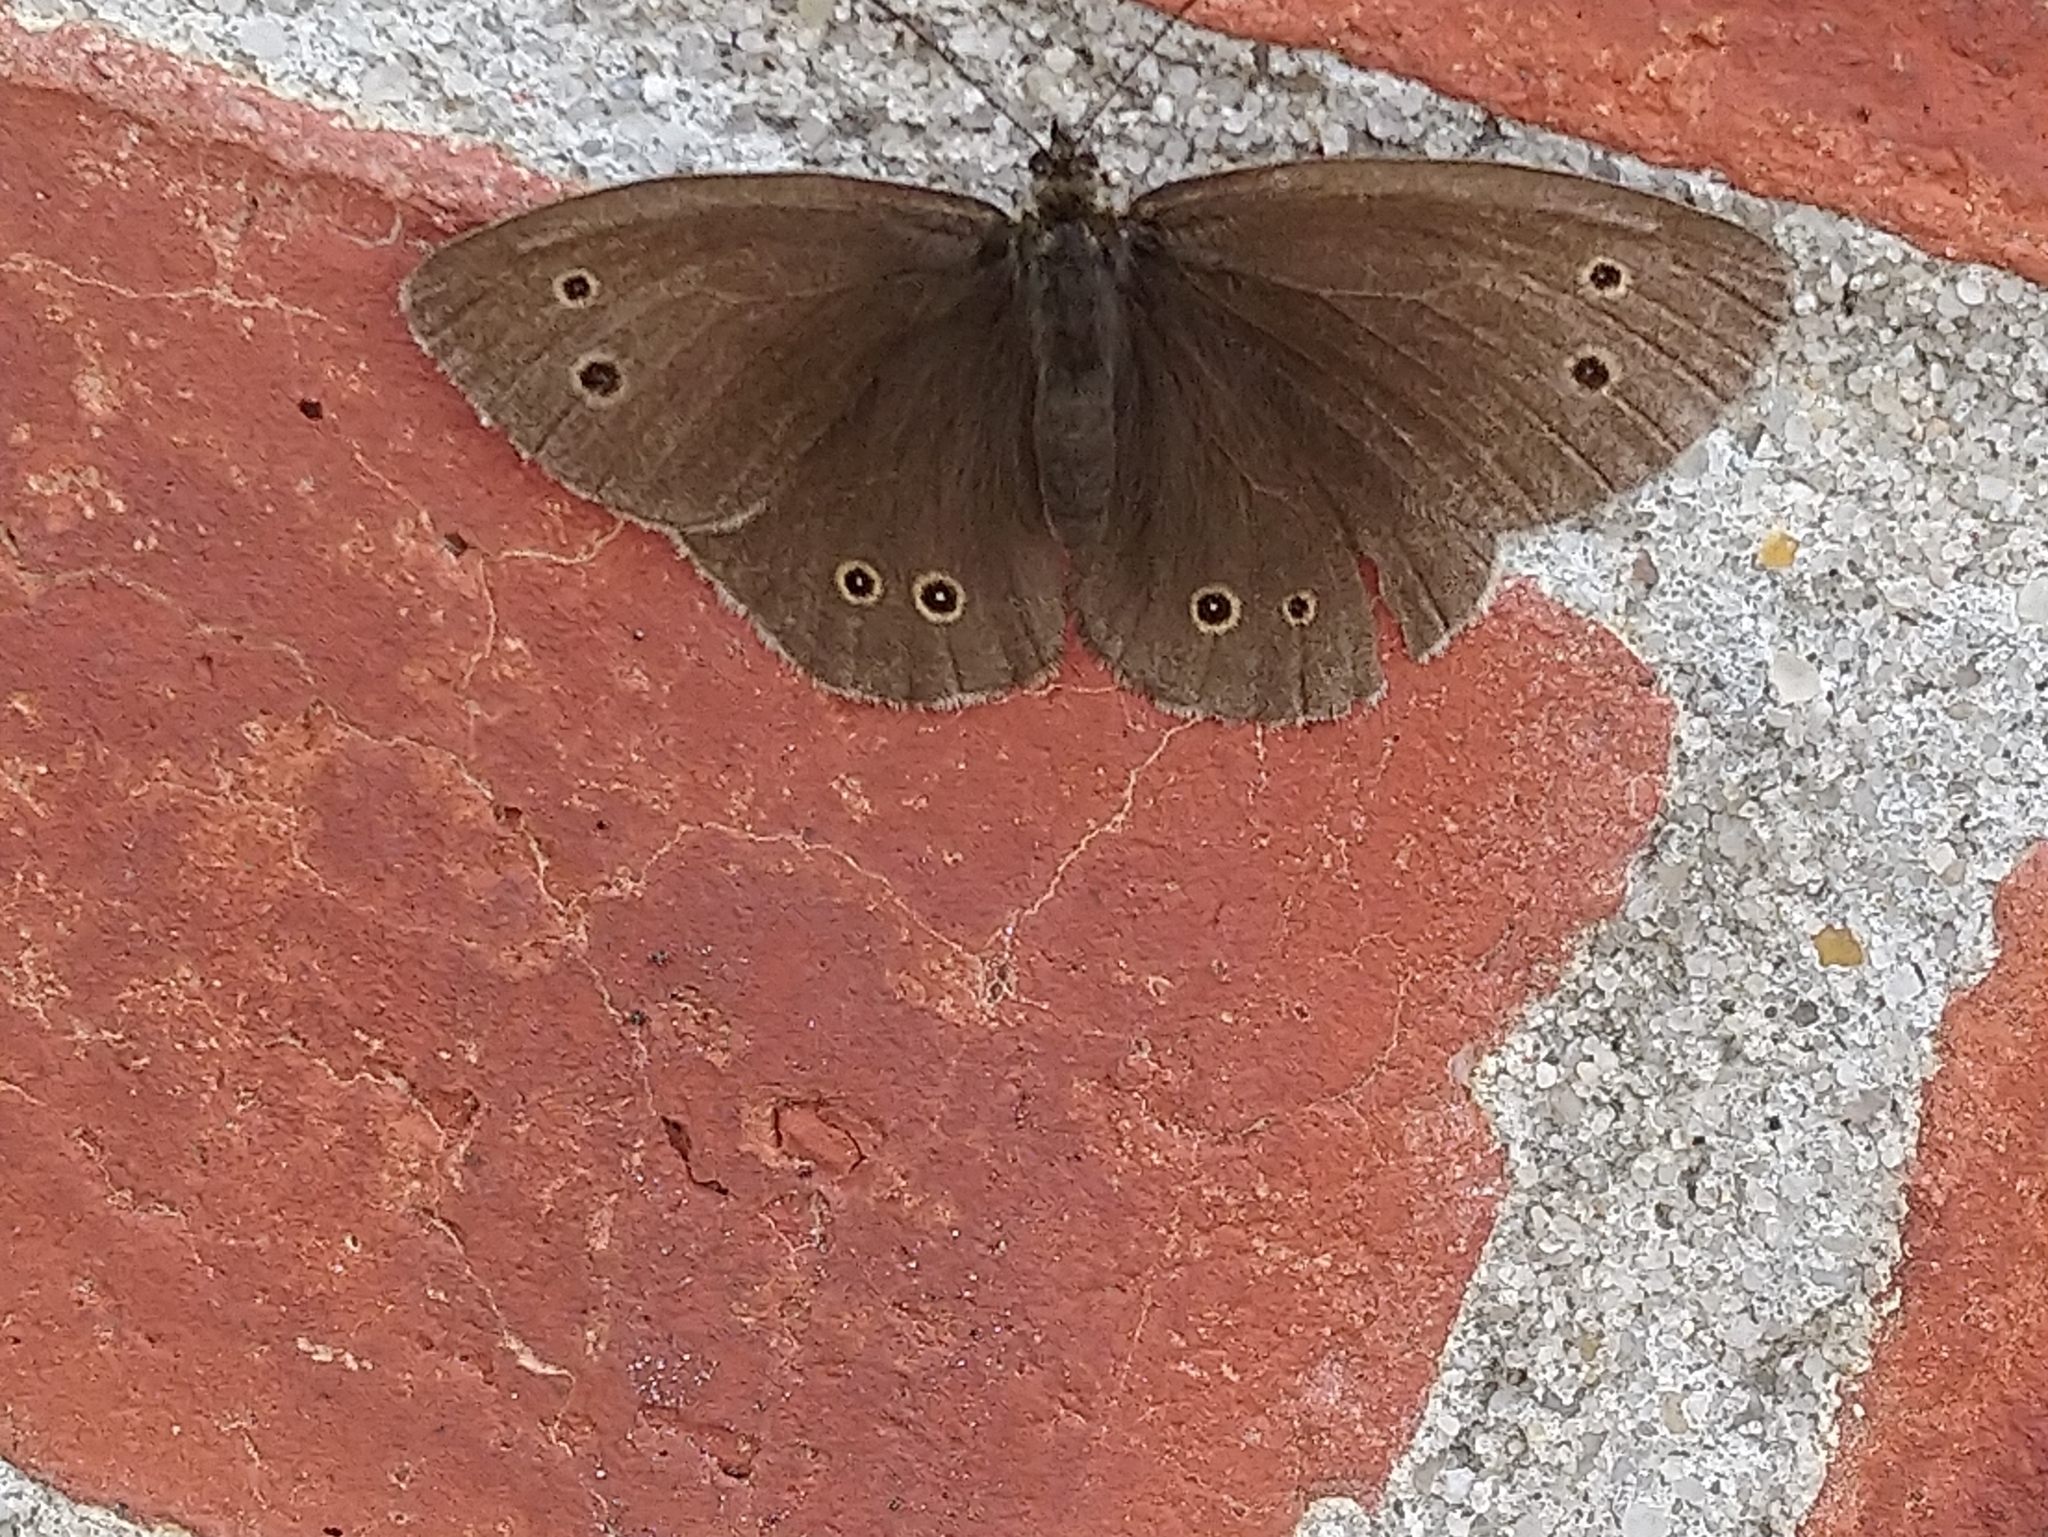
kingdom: Animalia
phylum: Arthropoda
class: Insecta
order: Lepidoptera
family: Nymphalidae
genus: Aphantopus
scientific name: Aphantopus hyperantus
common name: Ringlet
